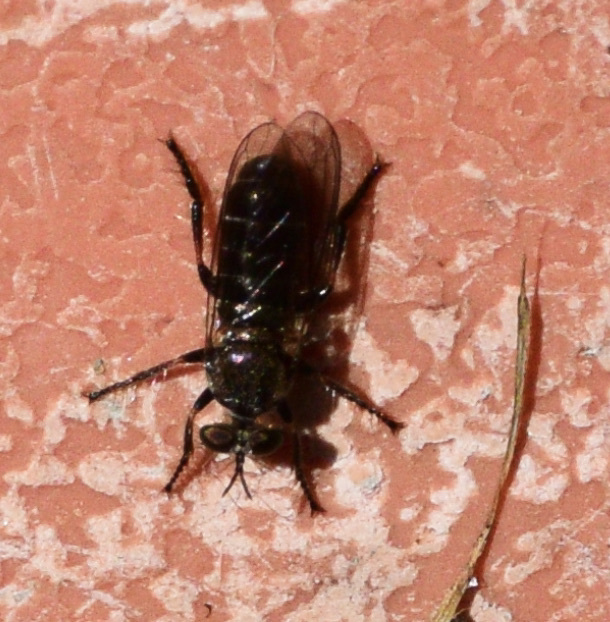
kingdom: Animalia
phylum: Arthropoda
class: Insecta
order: Diptera
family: Asilidae
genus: Atomosia
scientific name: Atomosia puella
